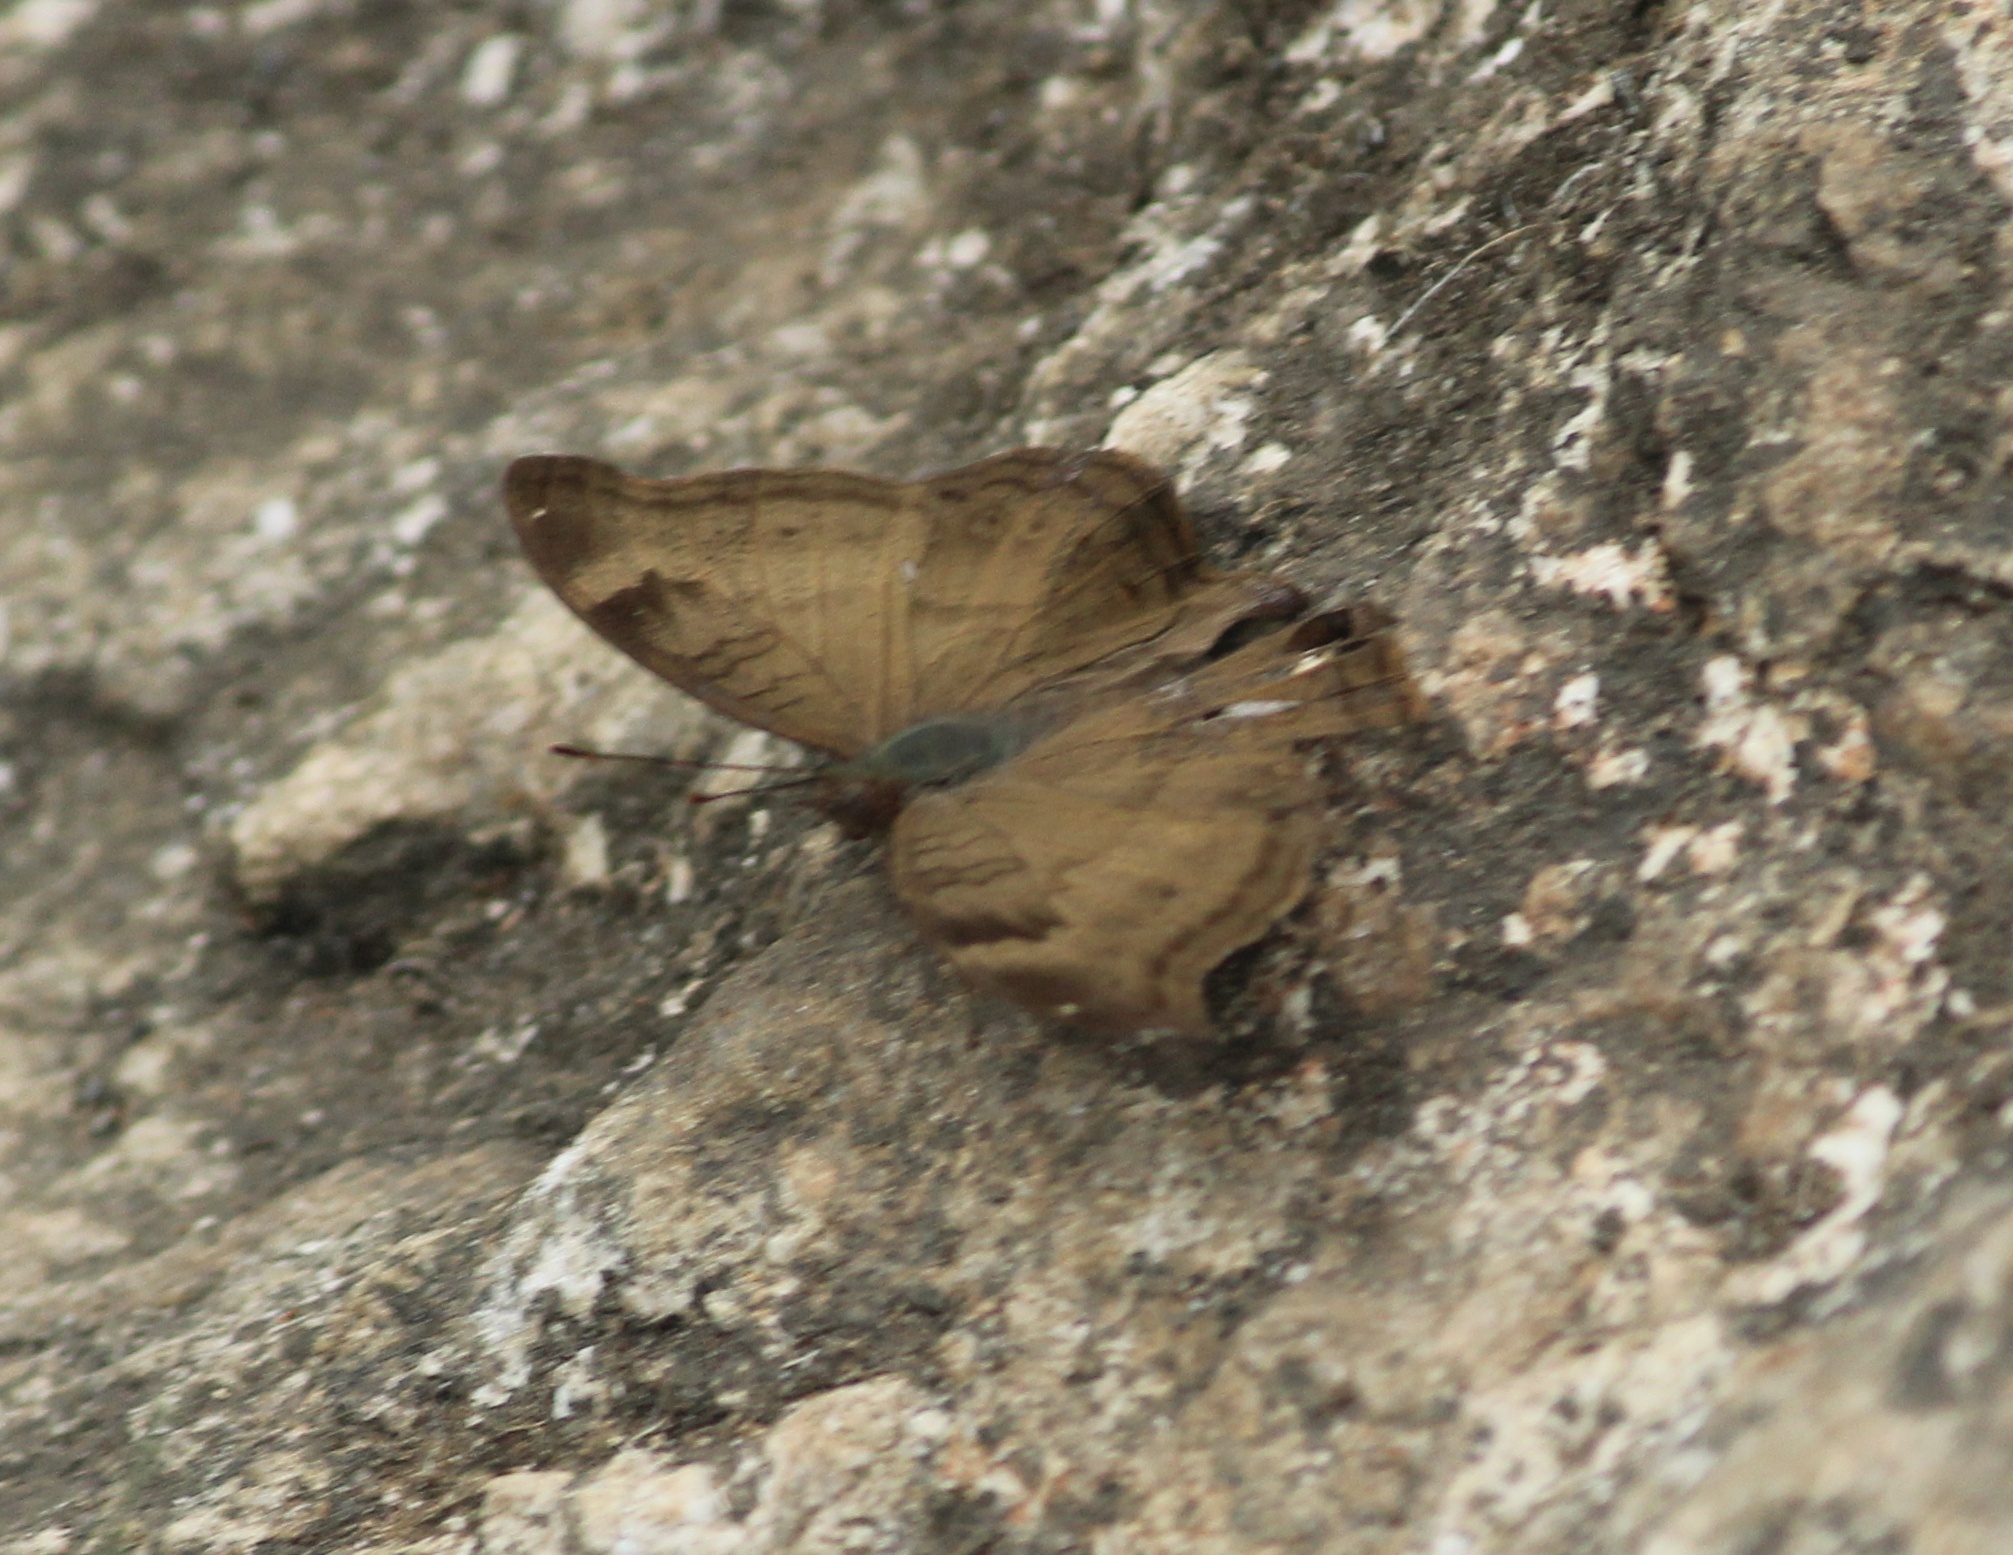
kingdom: Animalia
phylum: Arthropoda
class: Insecta
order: Lepidoptera
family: Nymphalidae
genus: Junonia
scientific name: Junonia iphita
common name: Chocolate pansy
